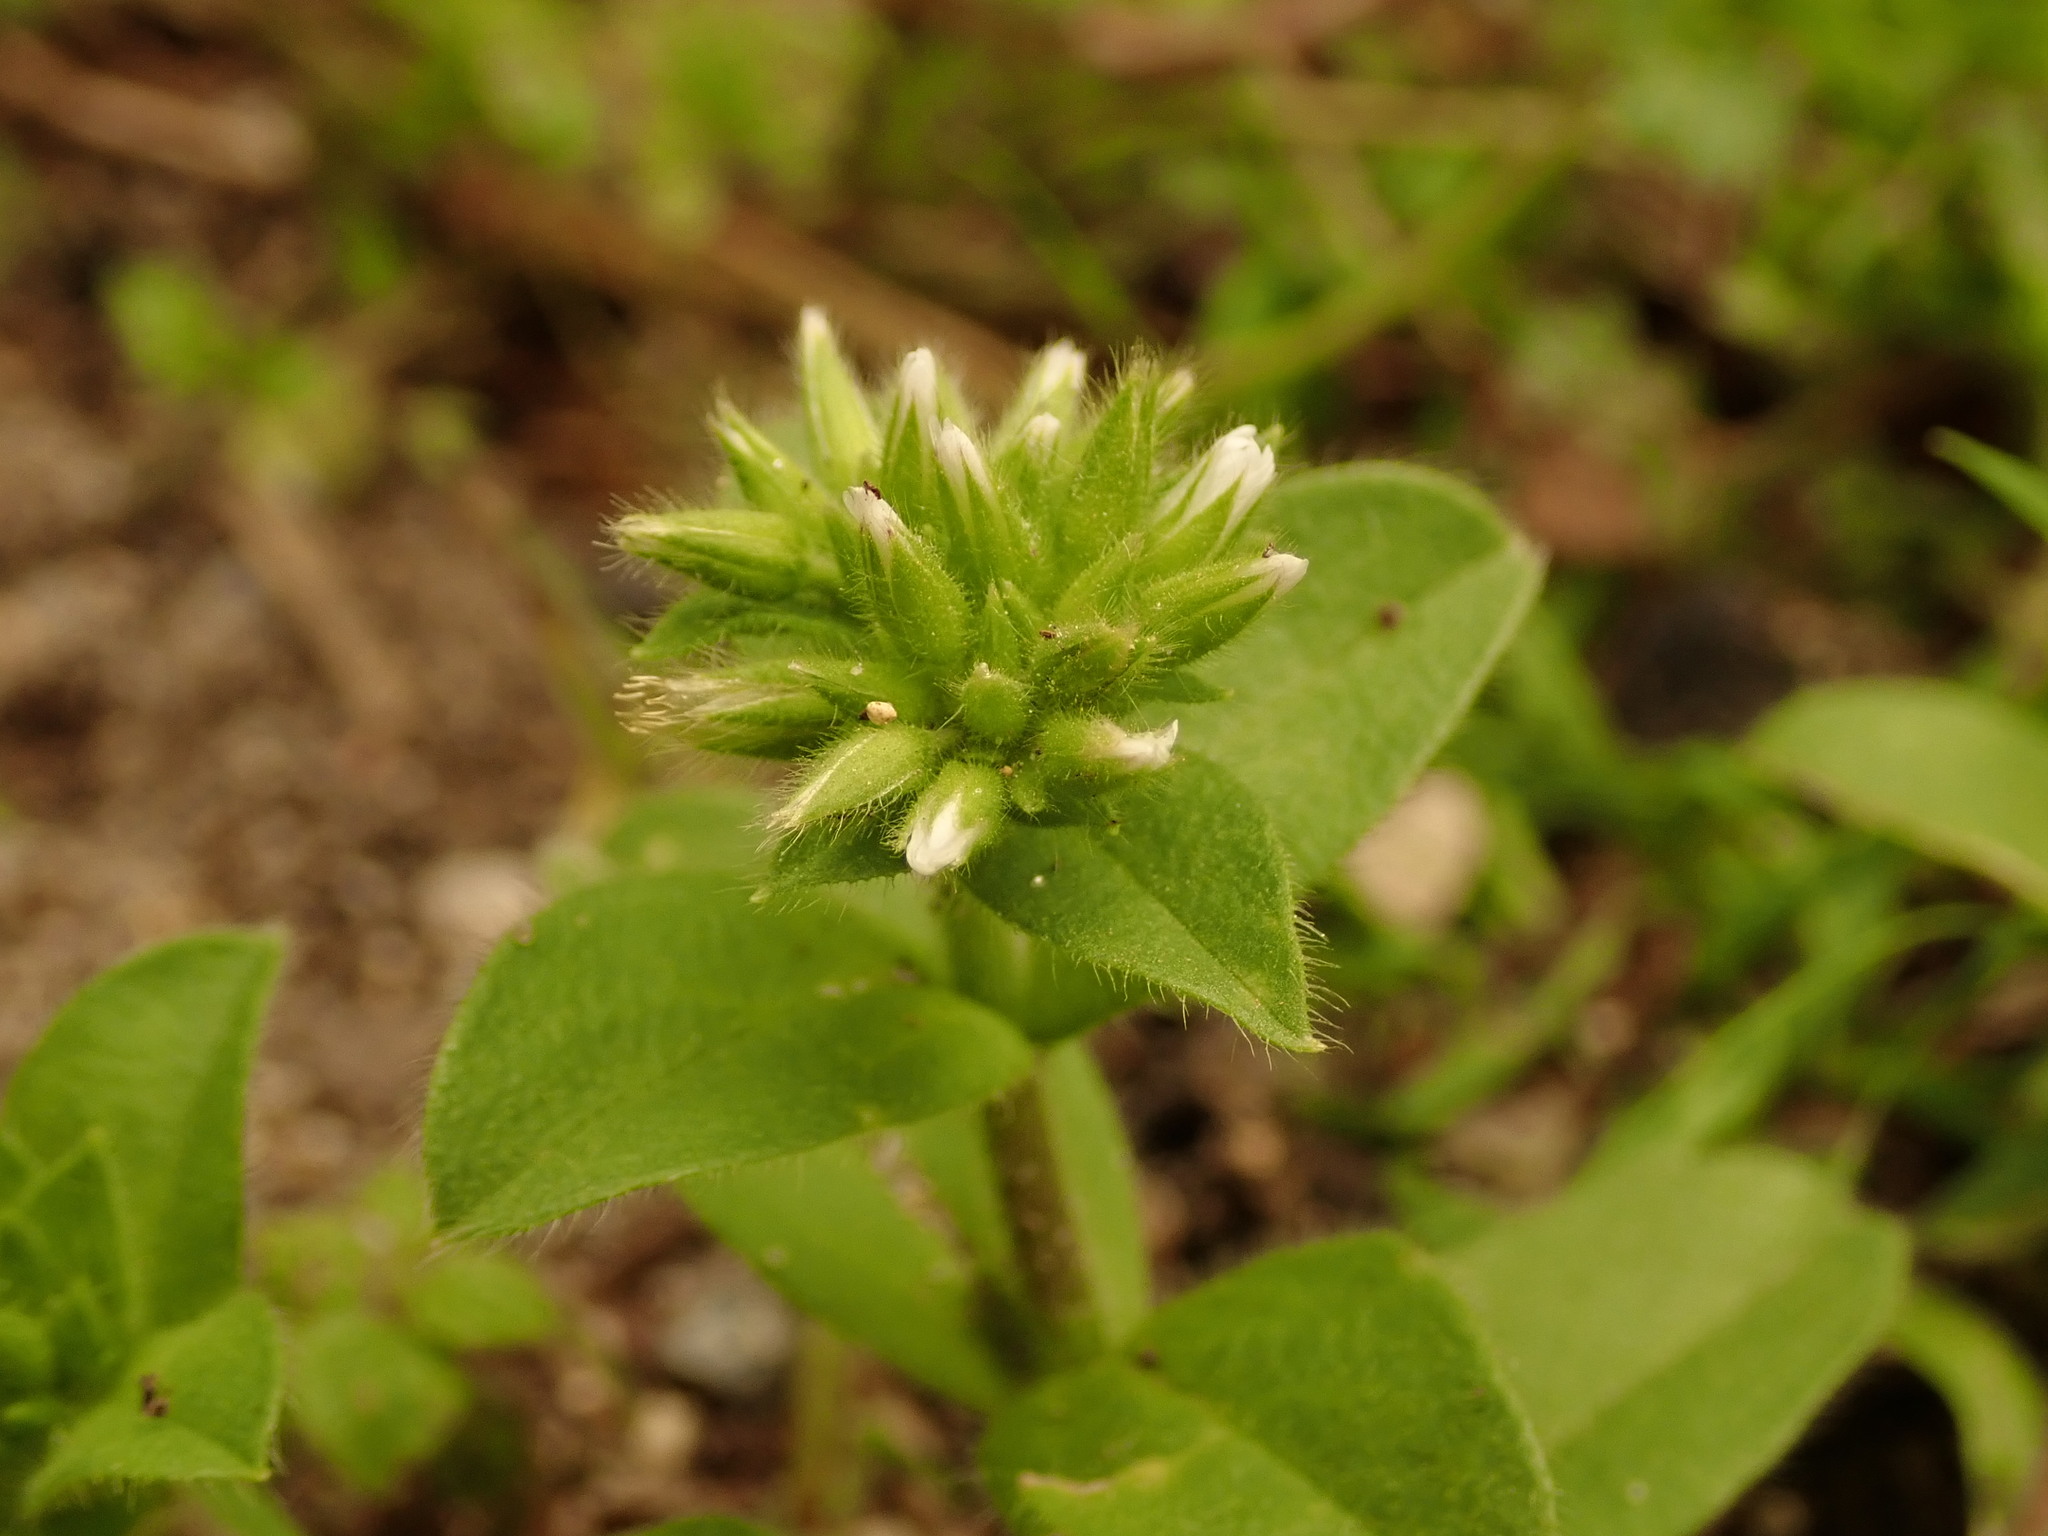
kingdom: Plantae
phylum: Tracheophyta
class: Magnoliopsida
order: Caryophyllales
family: Caryophyllaceae
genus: Cerastium
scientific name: Cerastium glomeratum
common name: Sticky chickweed
